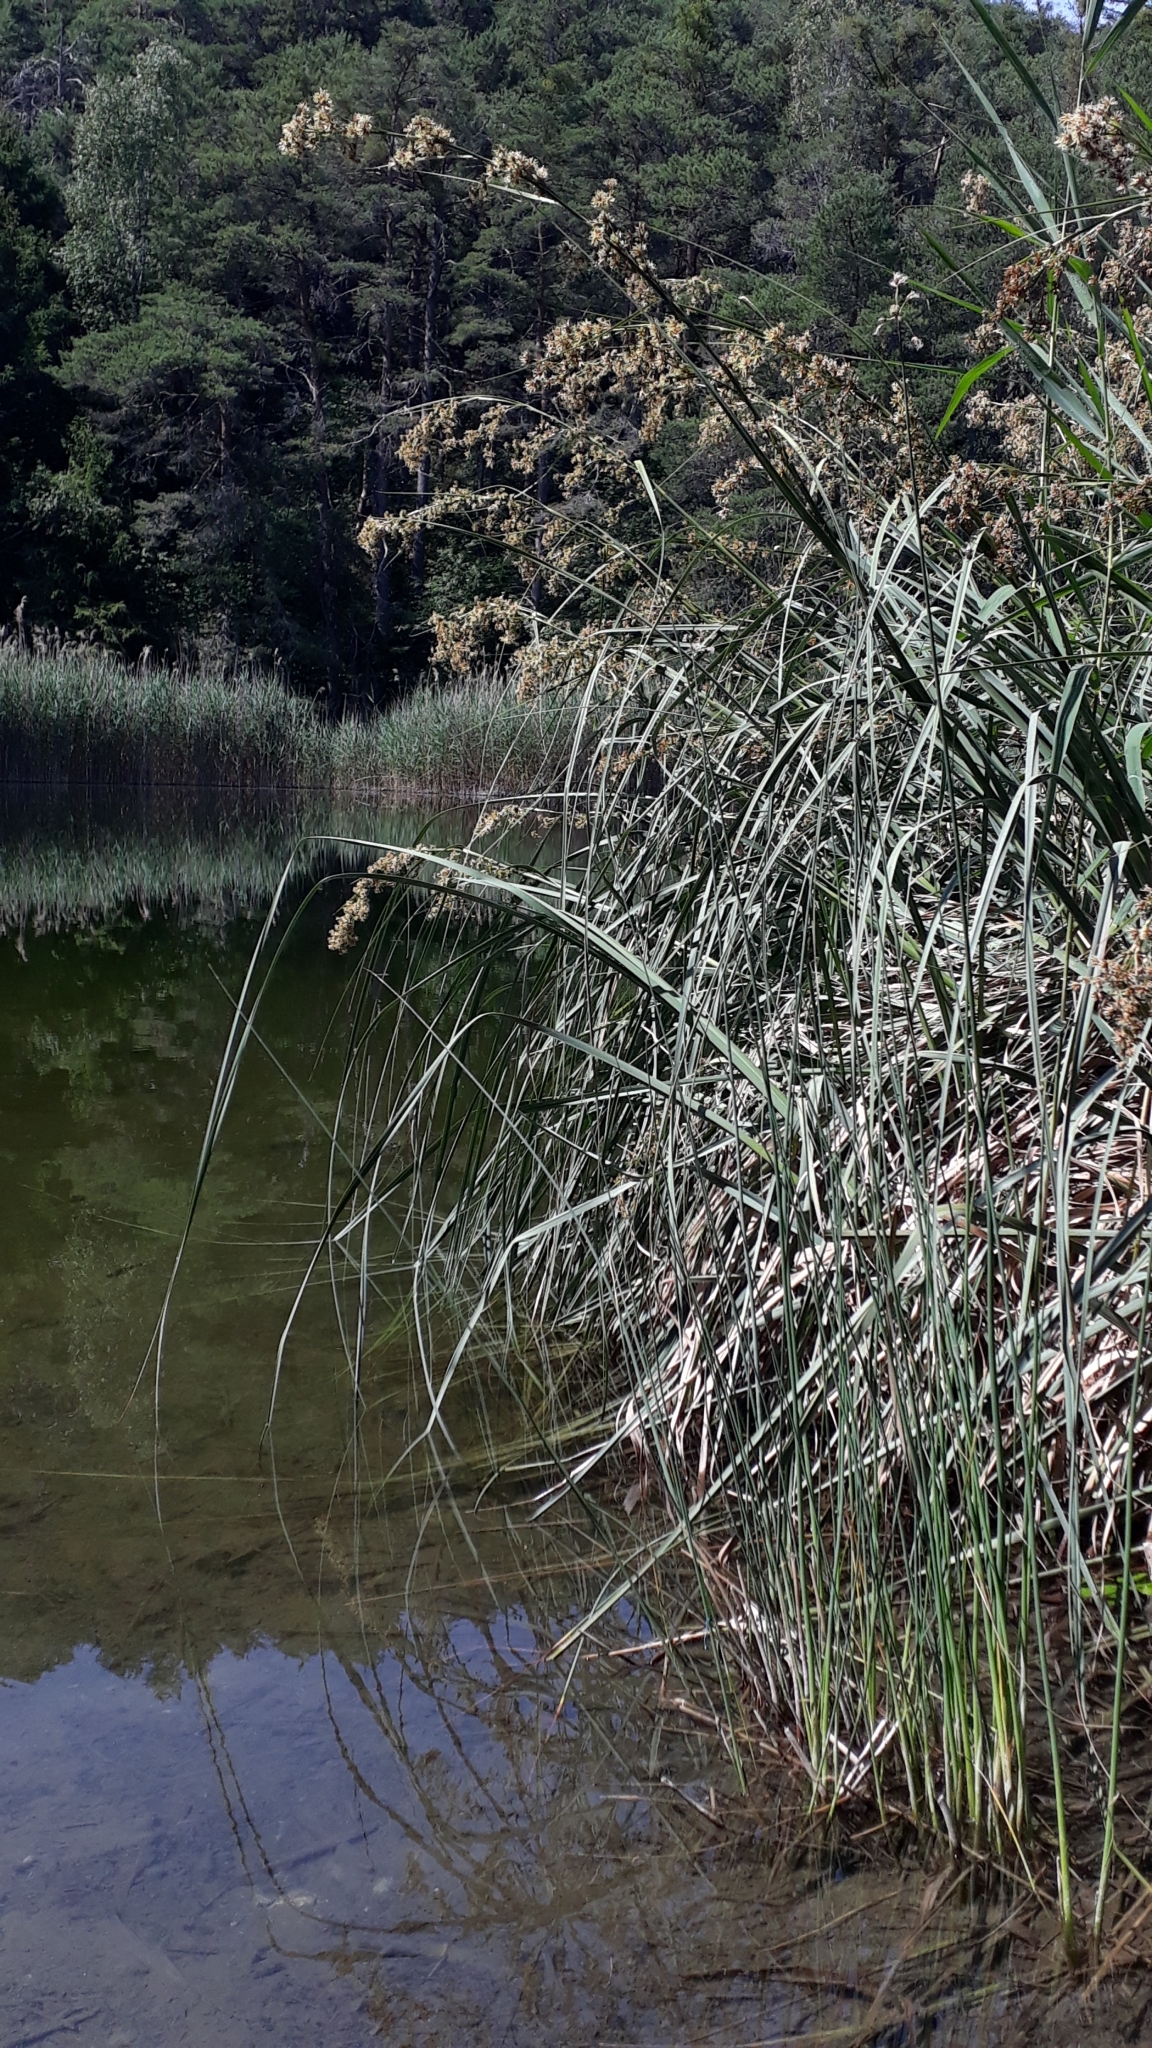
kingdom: Plantae
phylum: Tracheophyta
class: Liliopsida
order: Poales
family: Cyperaceae
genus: Cladium
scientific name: Cladium mariscus
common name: Great fen-sedge
